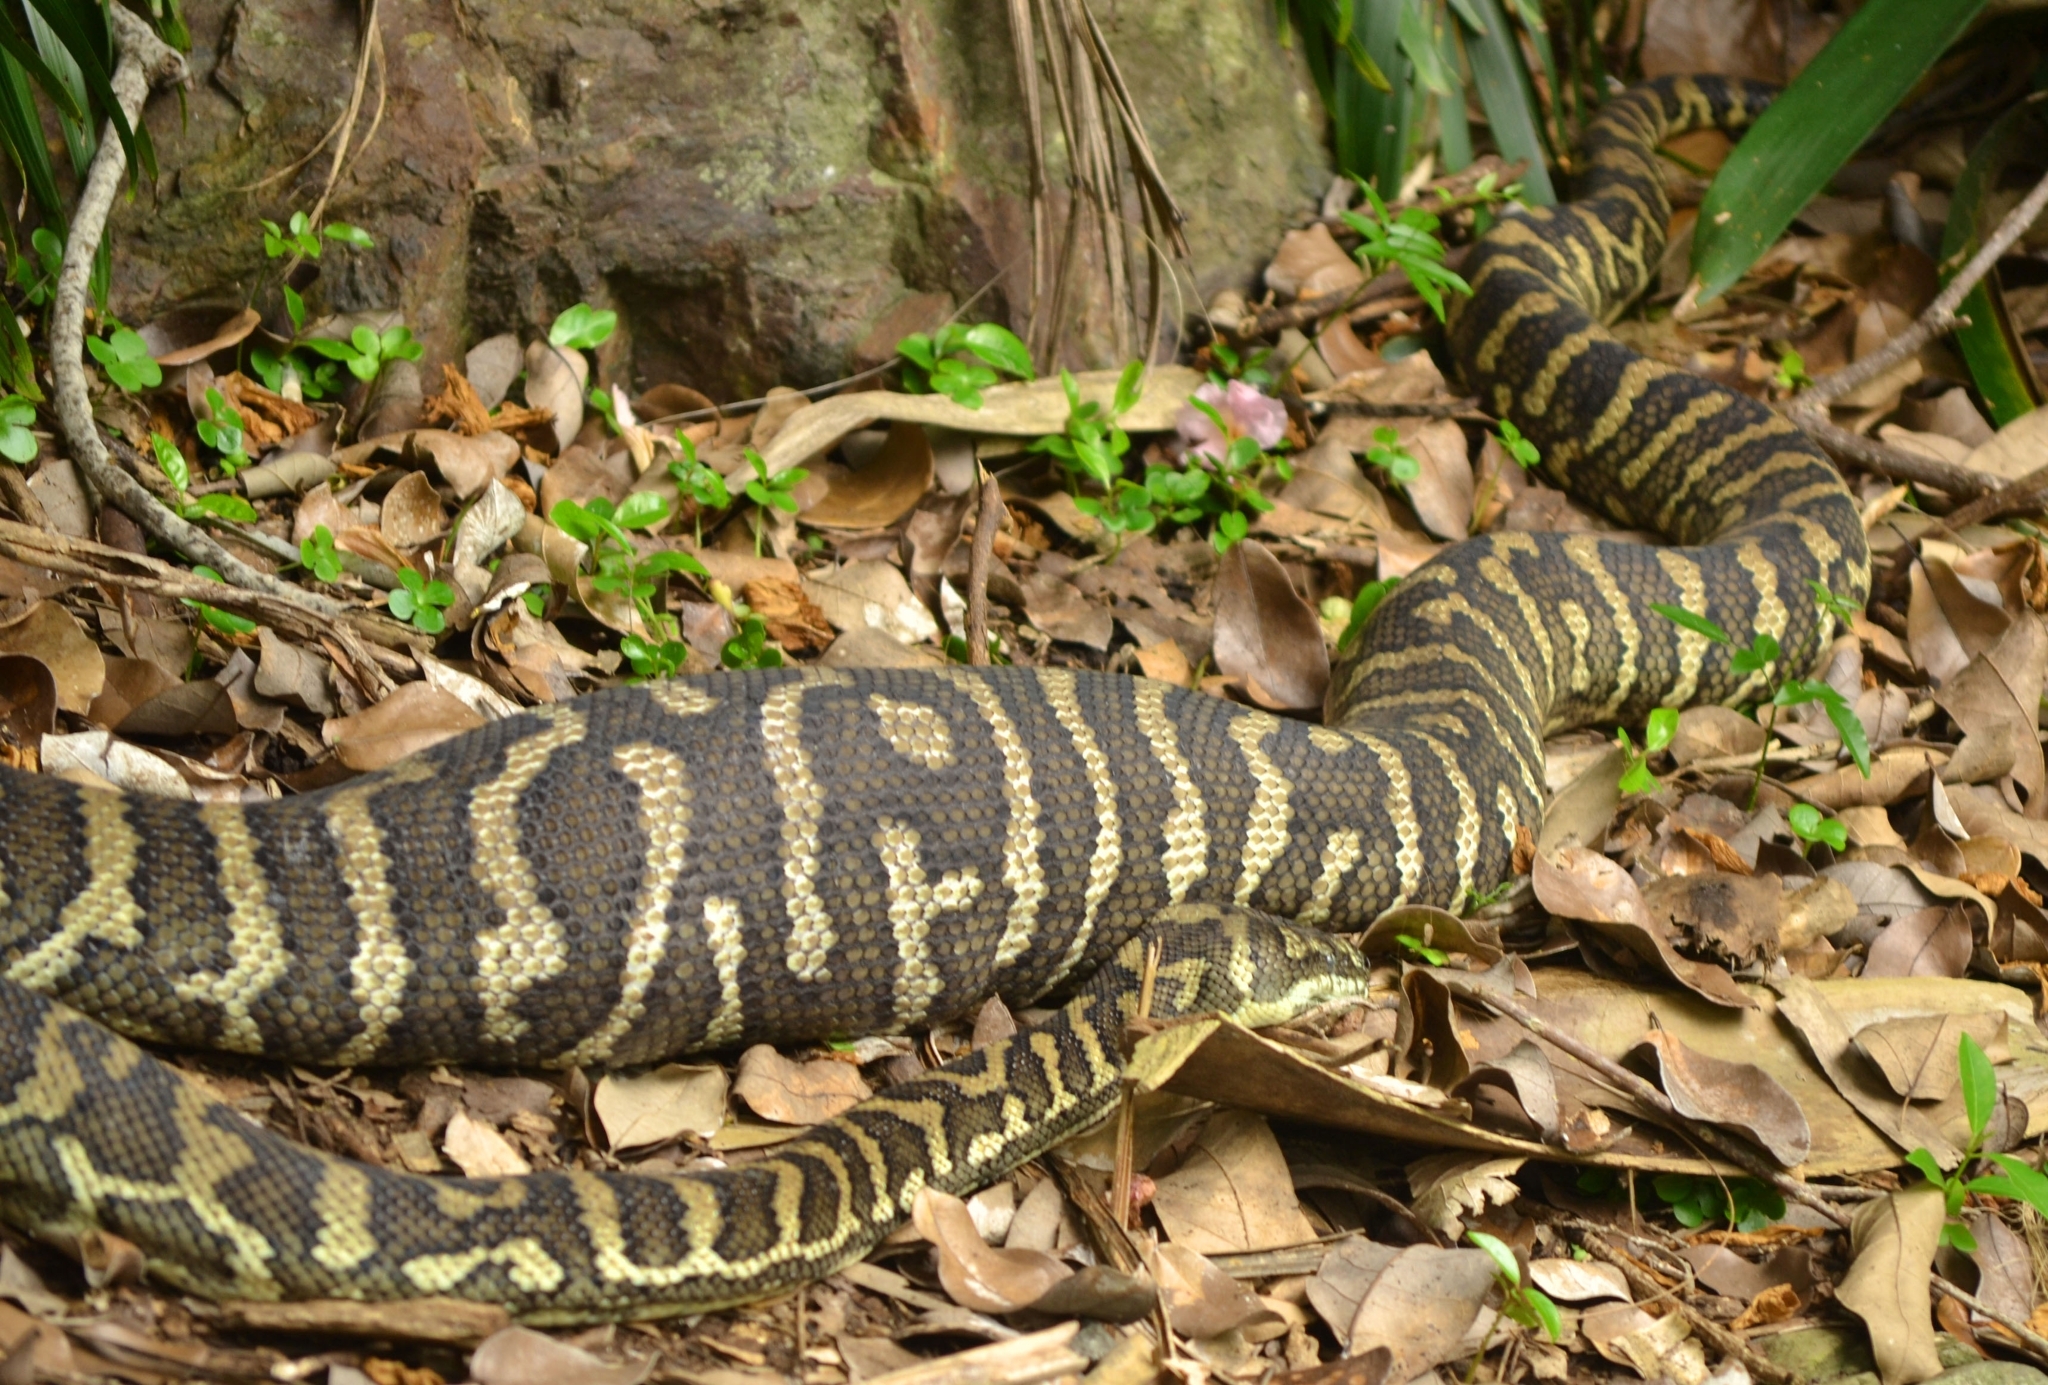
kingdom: Animalia
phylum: Chordata
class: Squamata
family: Pythonidae
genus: Morelia
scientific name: Morelia spilota
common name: Carpet python
